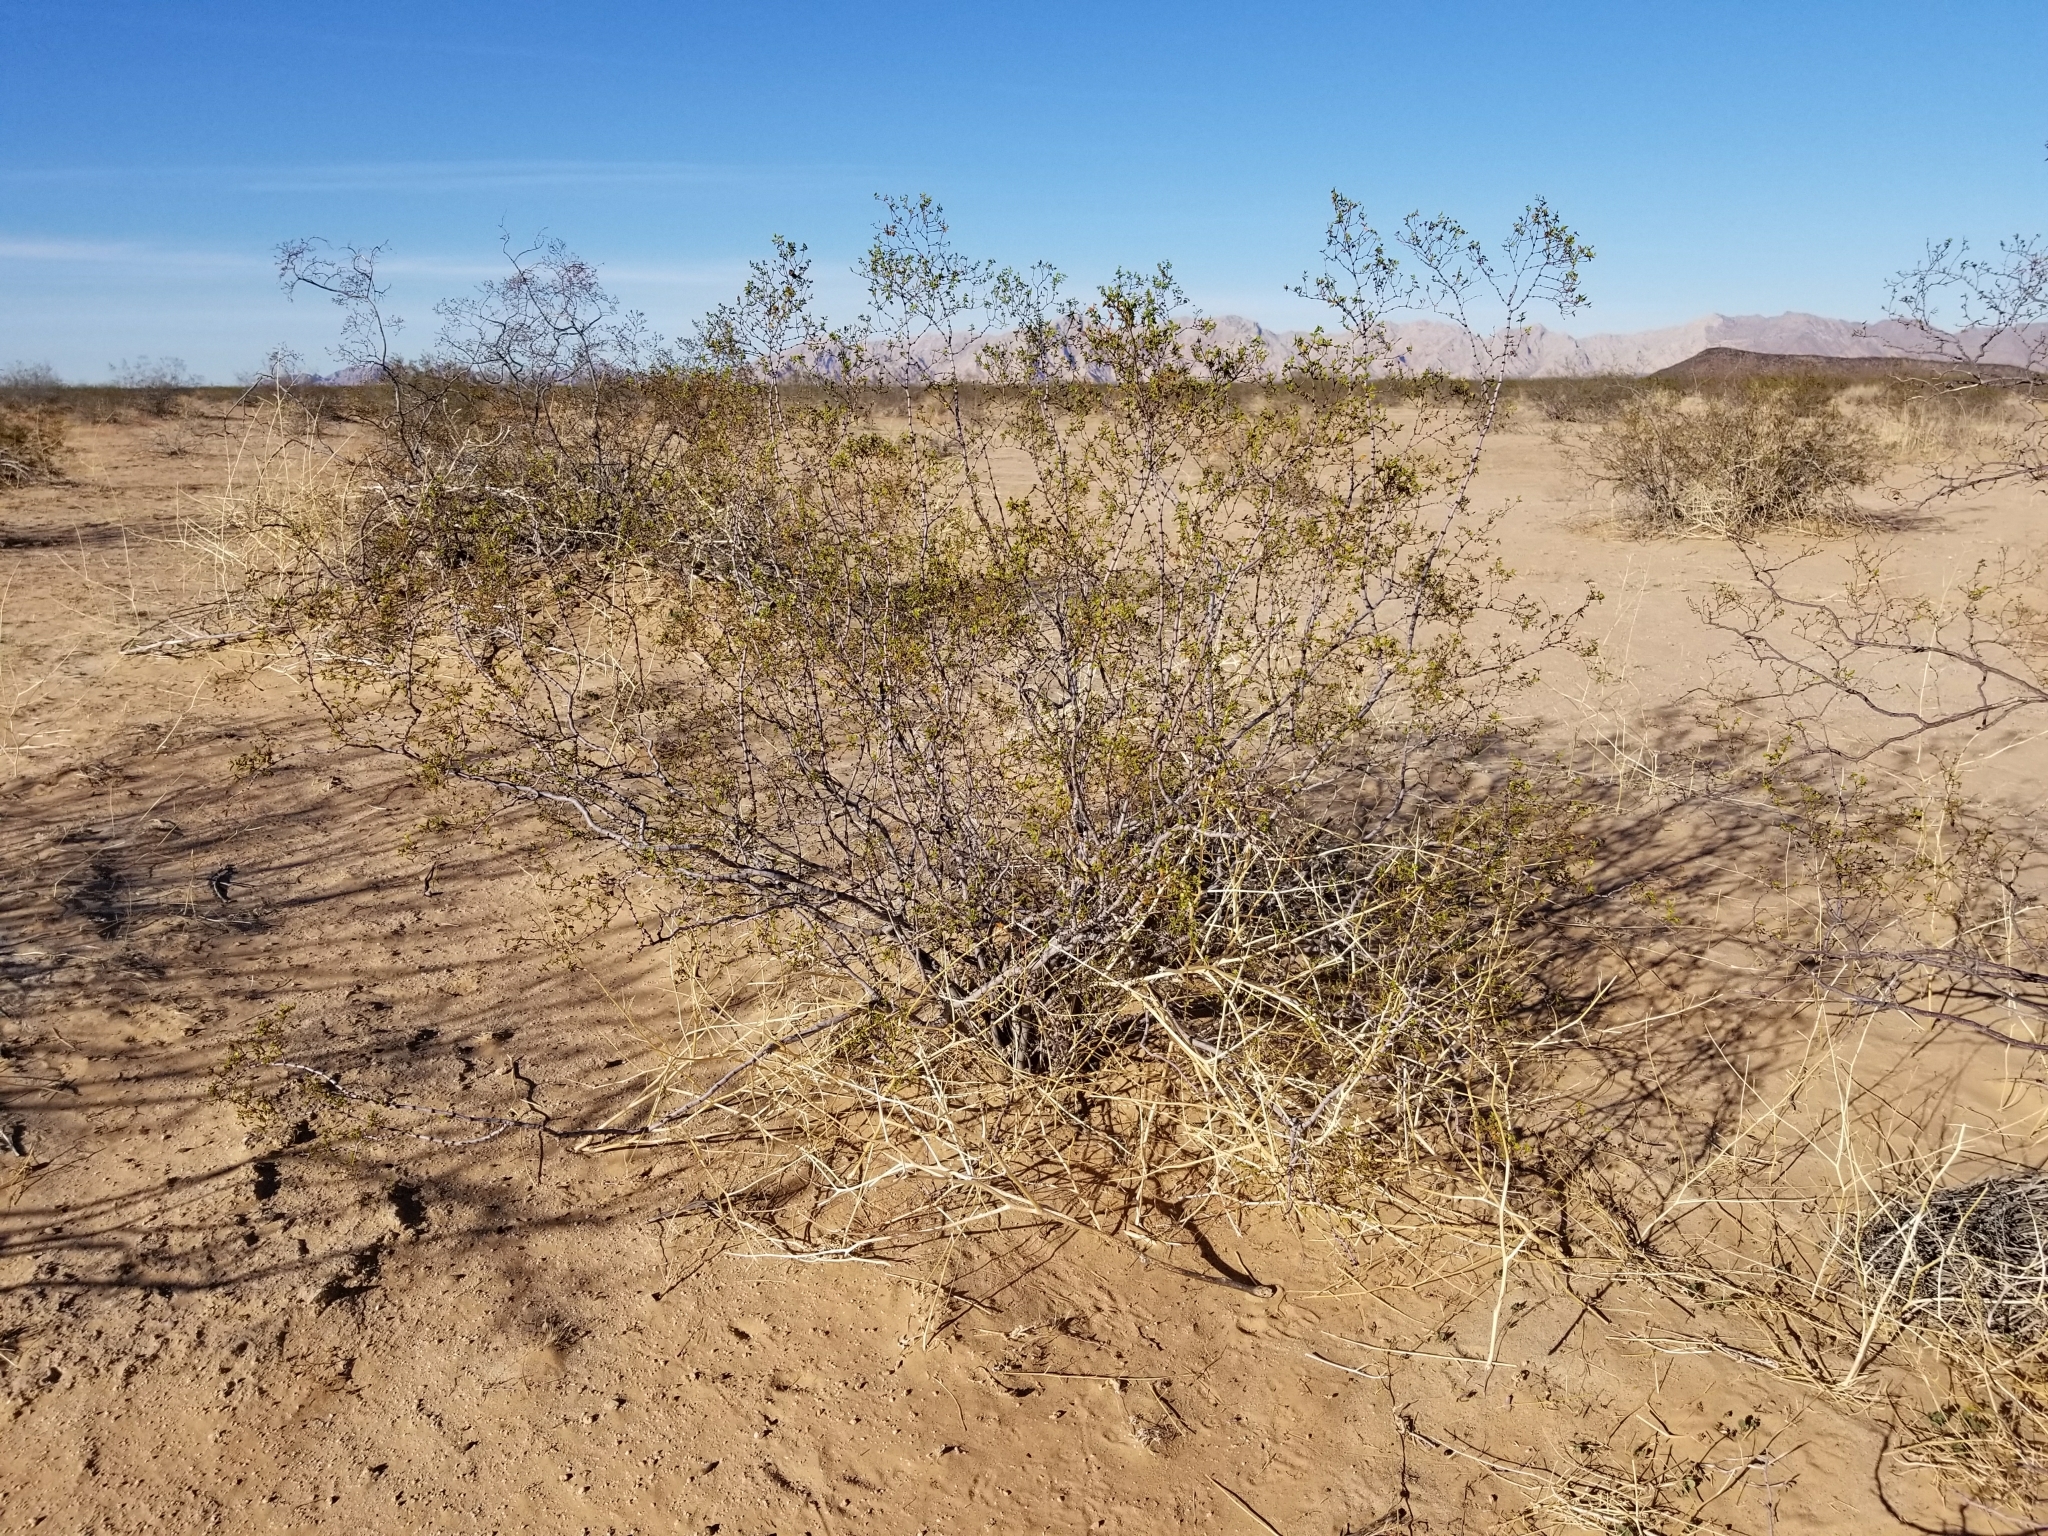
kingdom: Plantae
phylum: Tracheophyta
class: Magnoliopsida
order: Zygophyllales
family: Zygophyllaceae
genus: Larrea
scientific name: Larrea tridentata
